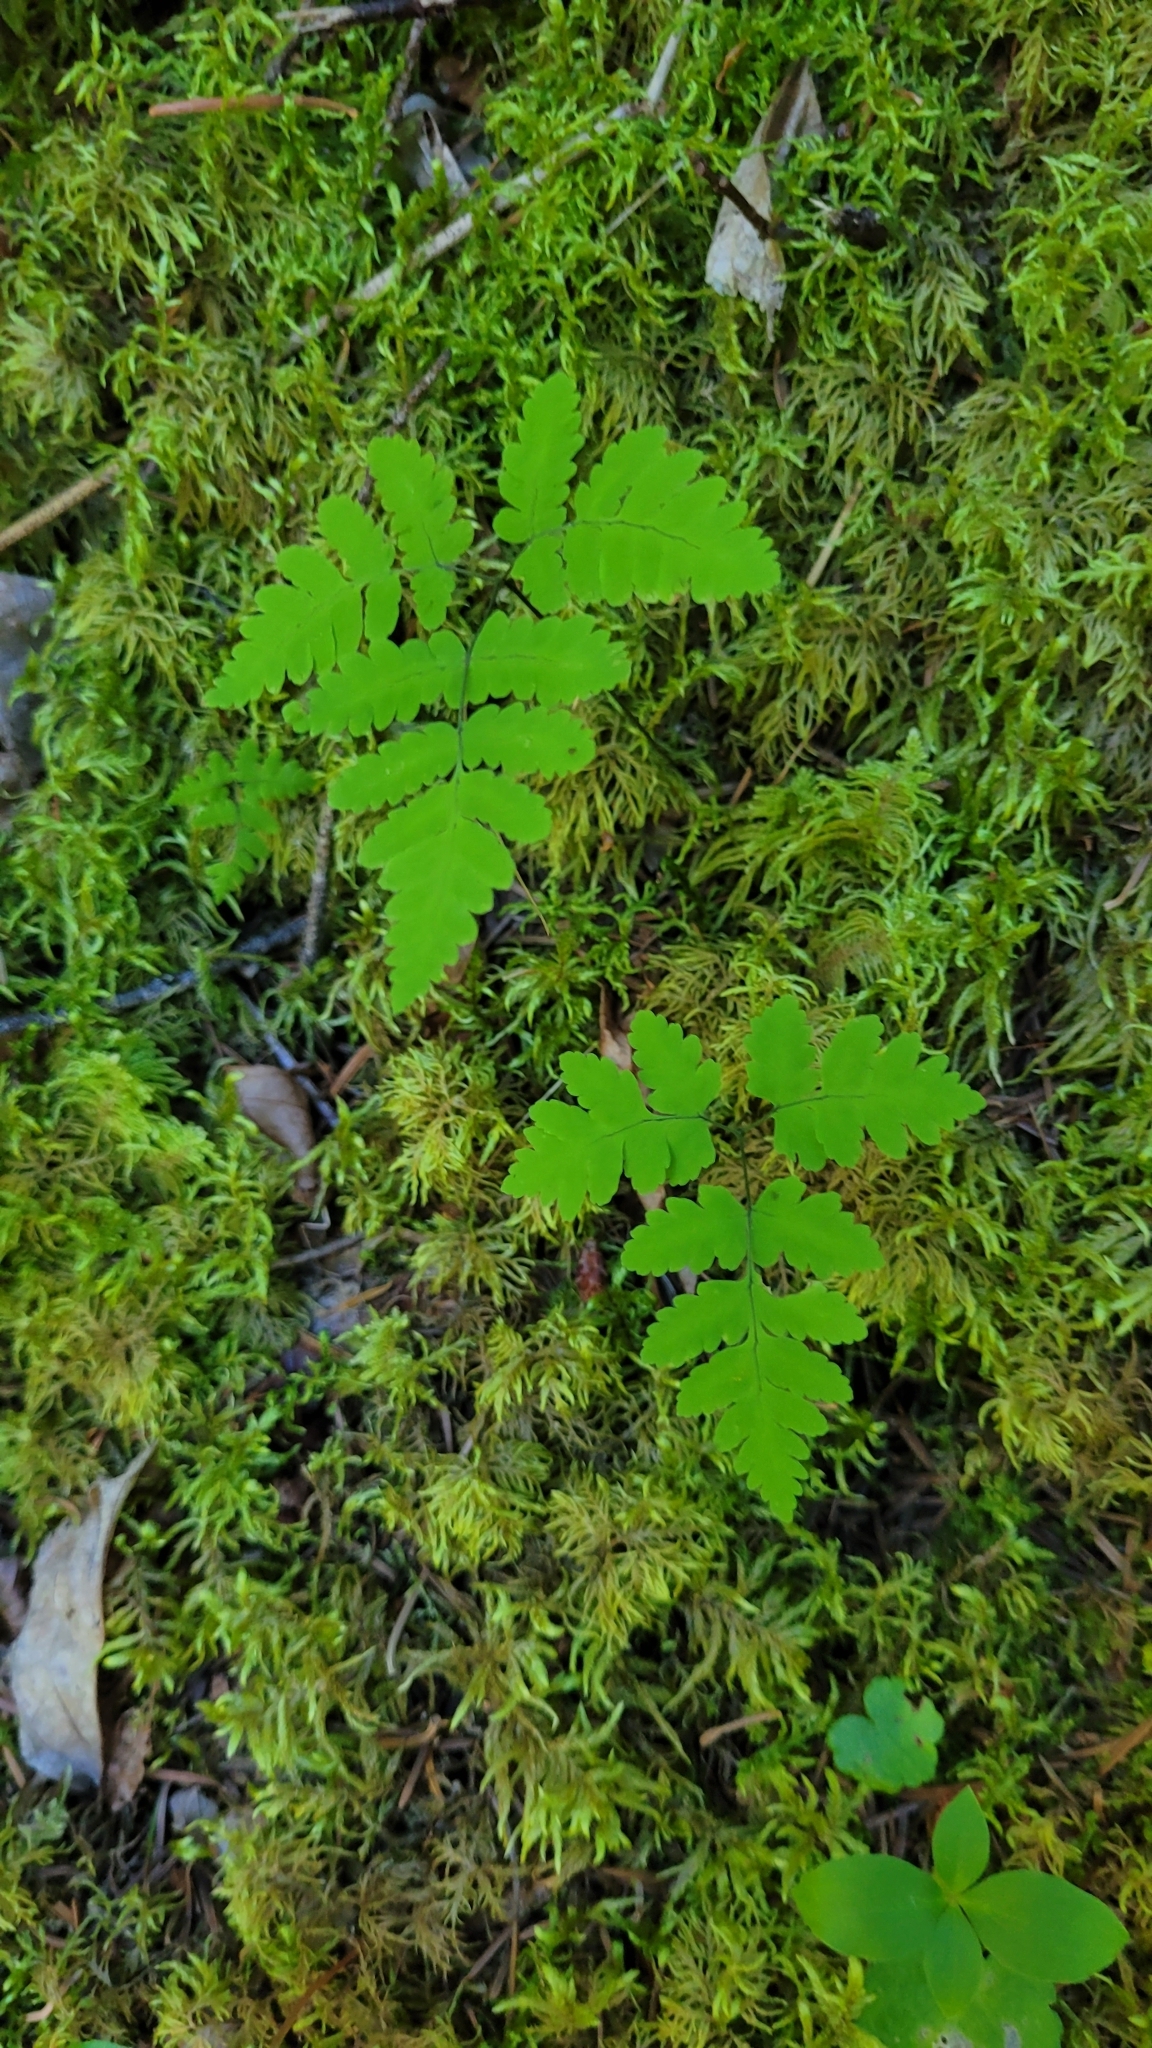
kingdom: Plantae
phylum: Tracheophyta
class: Polypodiopsida
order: Polypodiales
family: Cystopteridaceae
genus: Gymnocarpium
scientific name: Gymnocarpium dryopteris
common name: Oak fern
